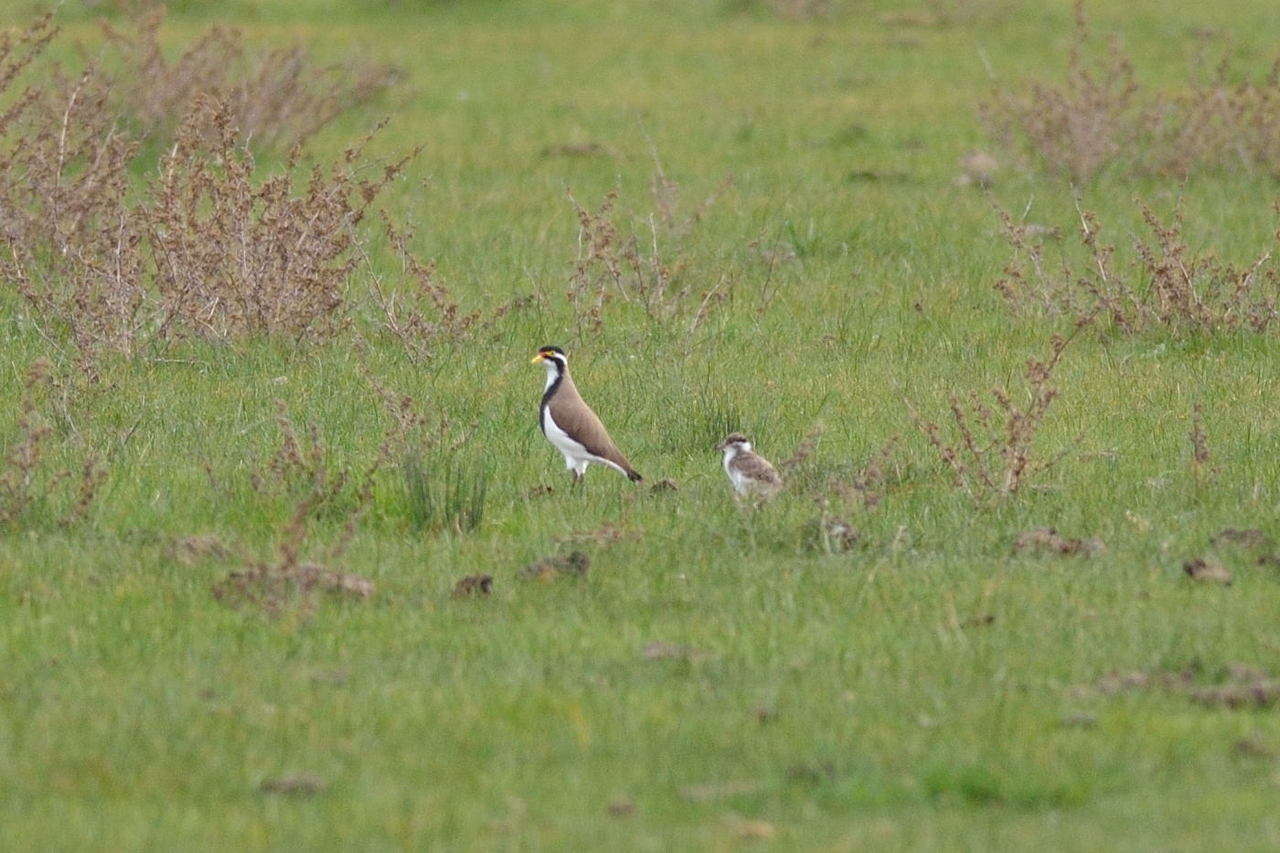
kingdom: Animalia
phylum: Chordata
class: Aves
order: Charadriiformes
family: Charadriidae
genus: Vanellus
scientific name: Vanellus tricolor
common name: Banded lapwing
